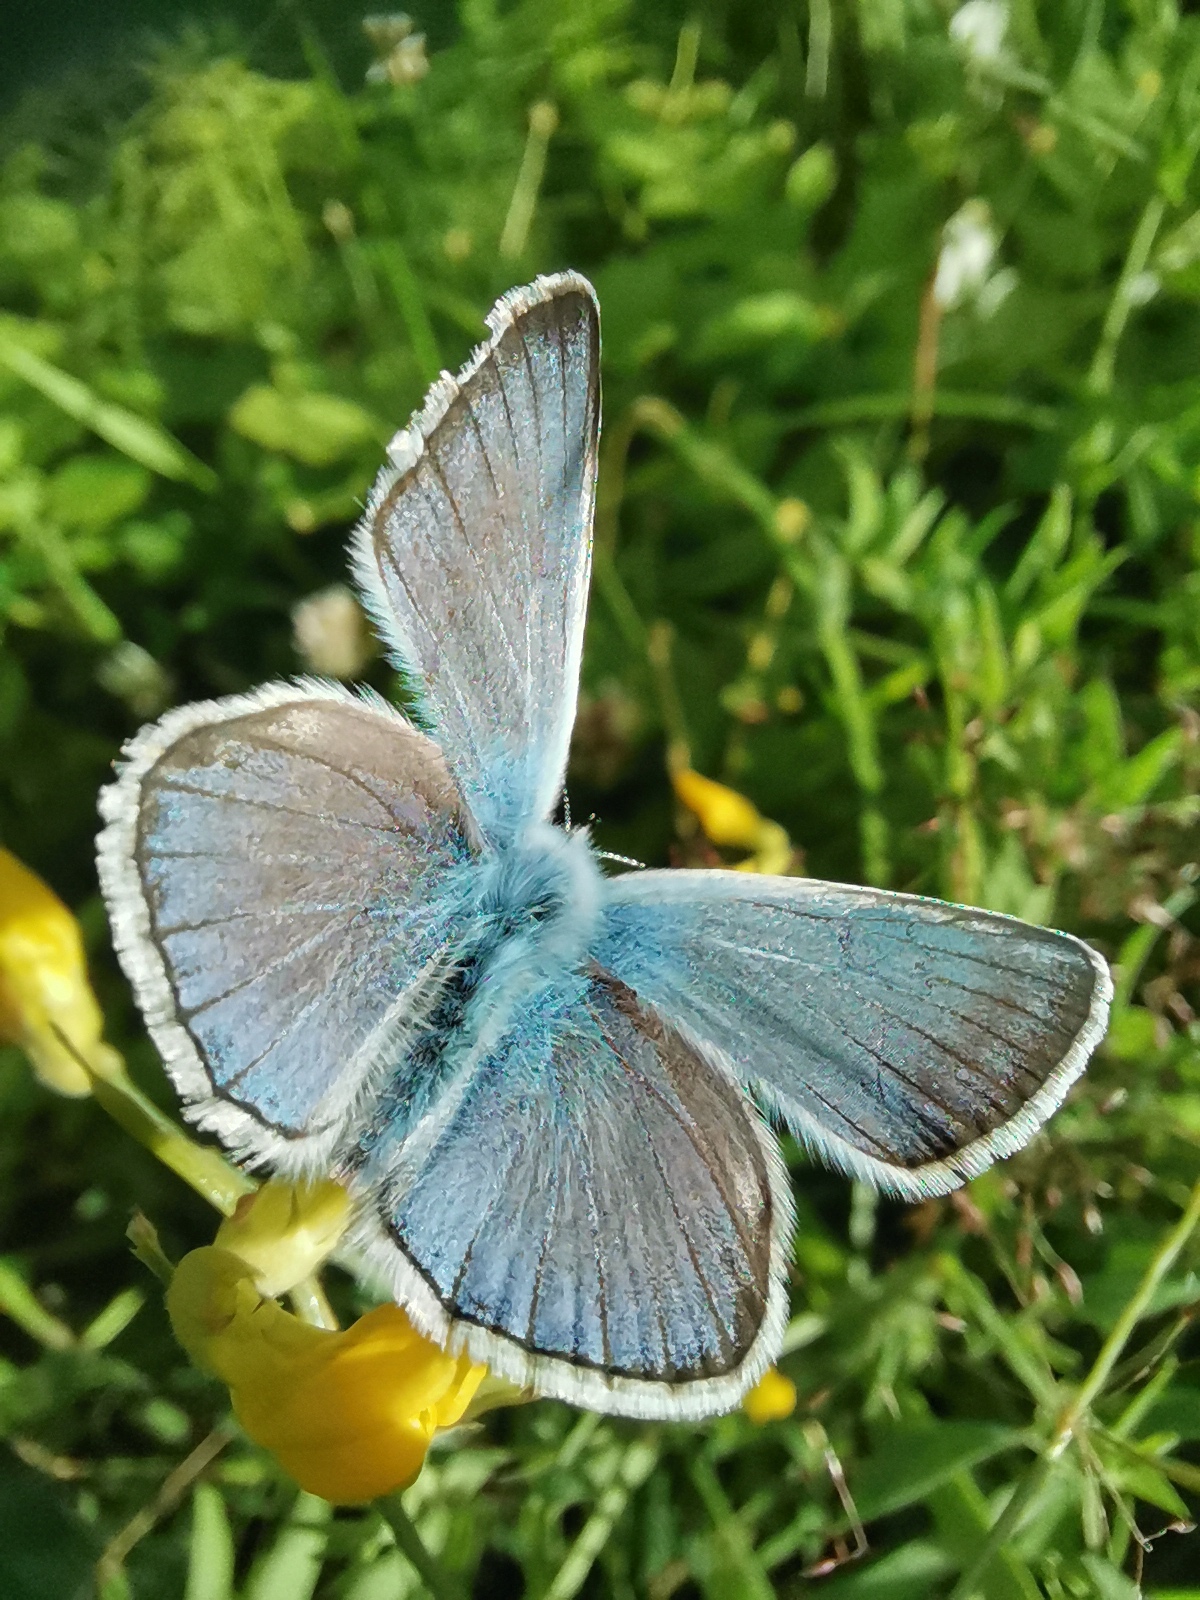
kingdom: Animalia
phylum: Arthropoda
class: Insecta
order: Lepidoptera
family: Lycaenidae
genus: Plebejus
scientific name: Plebejus amanda
